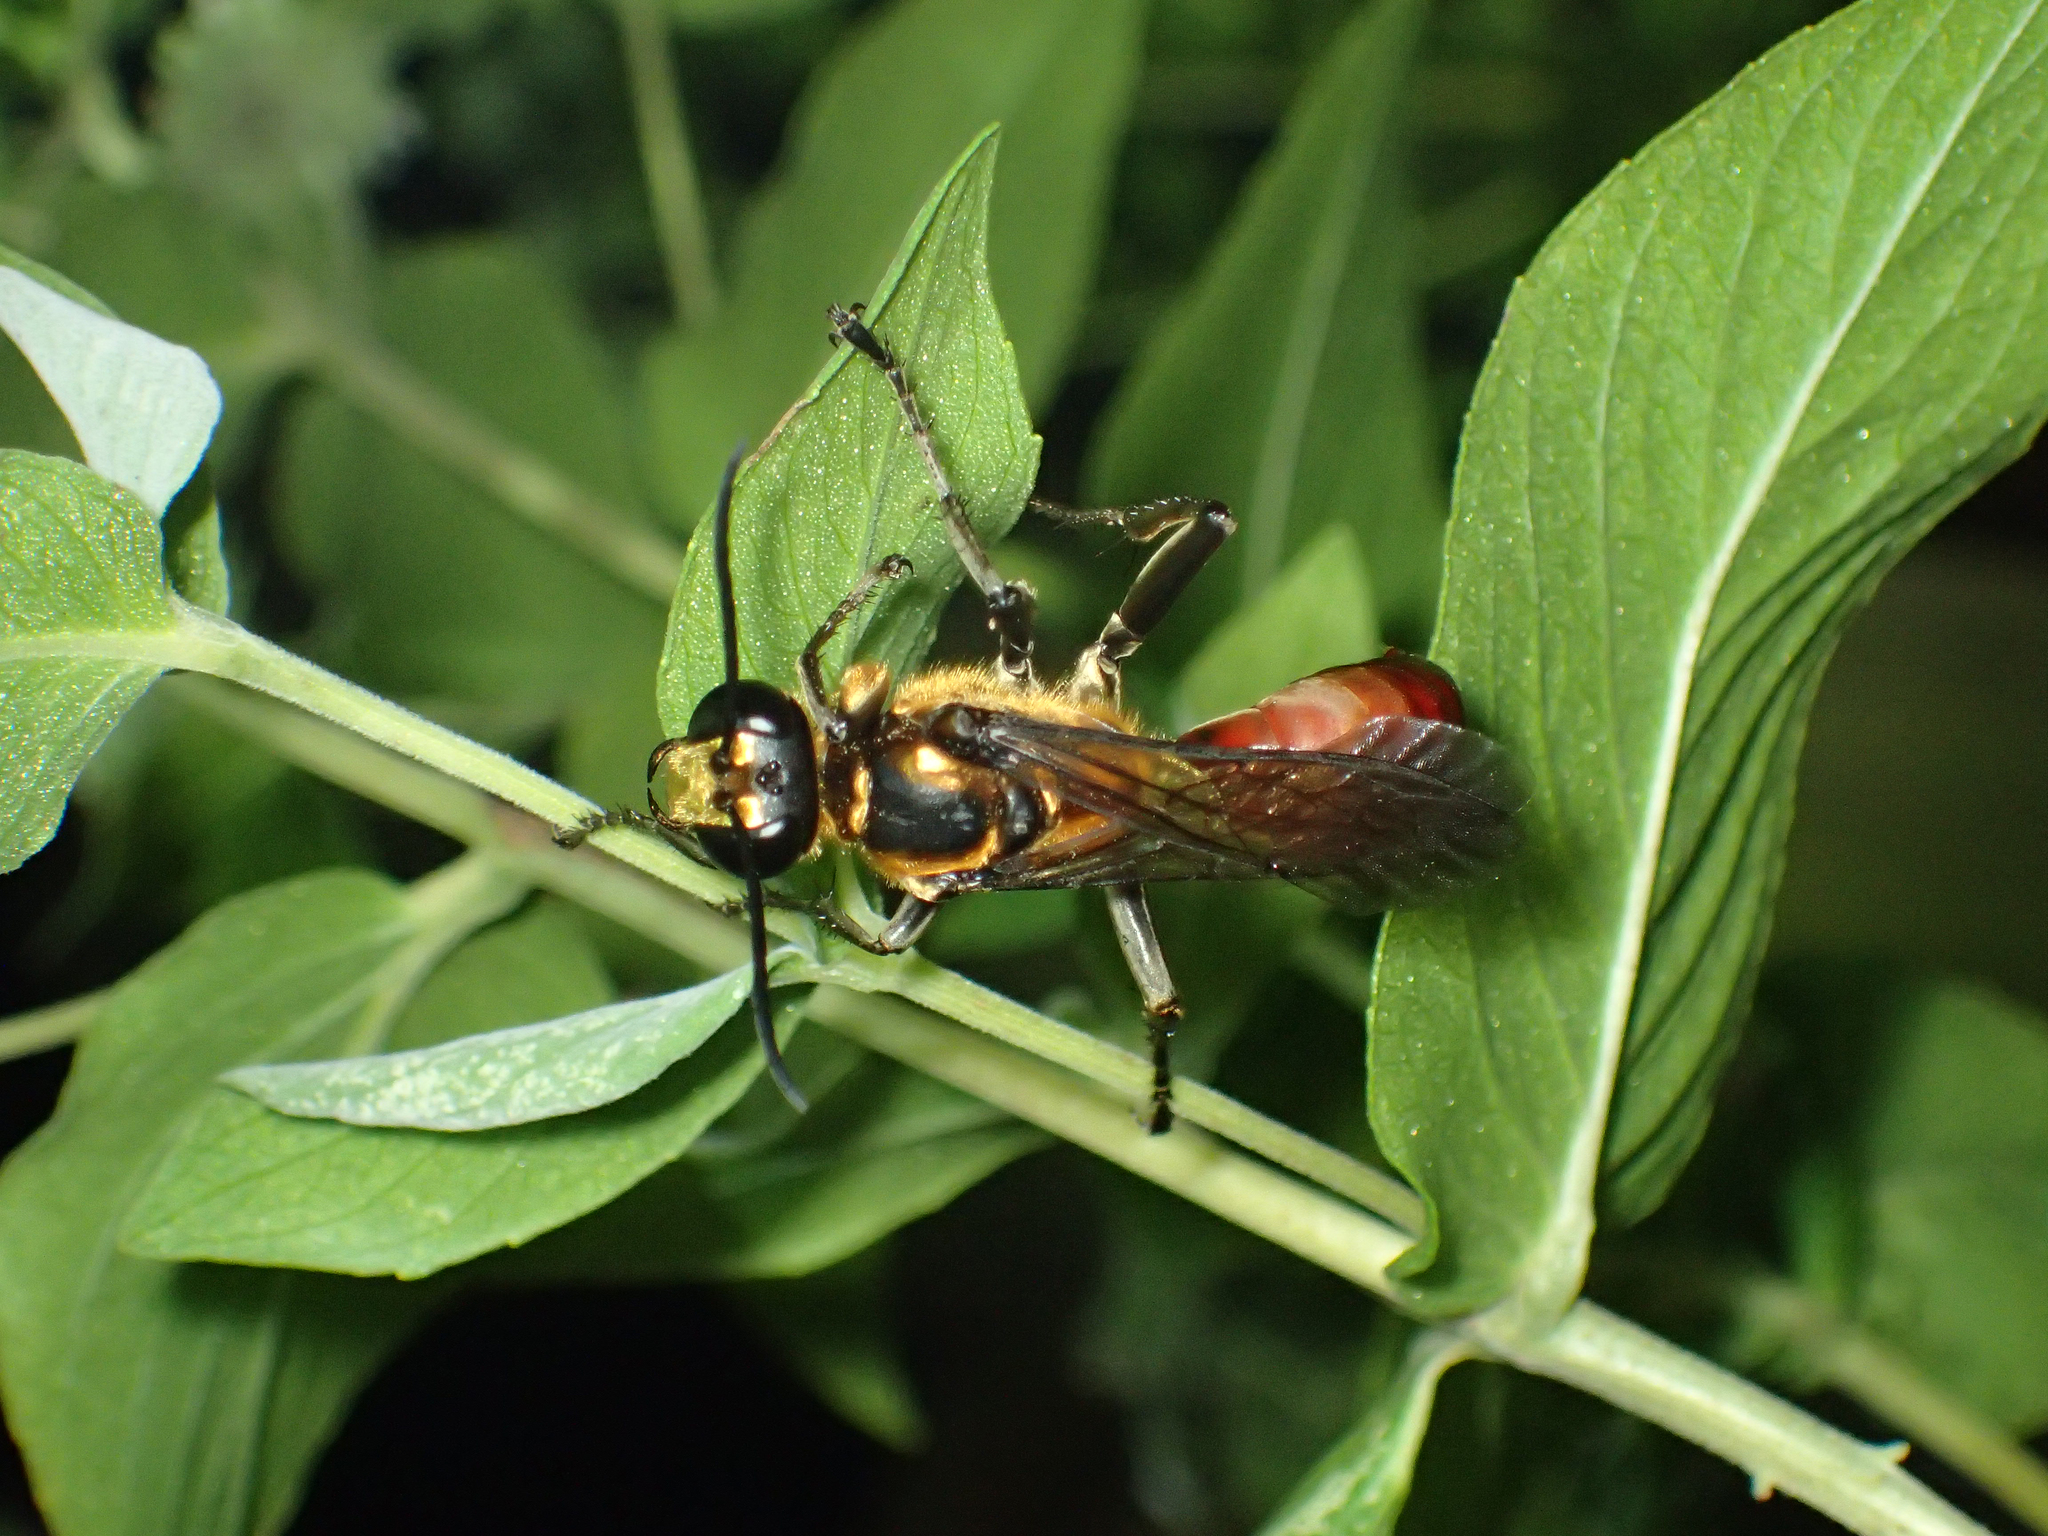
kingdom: Animalia
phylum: Arthropoda
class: Insecta
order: Hymenoptera
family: Sphecidae
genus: Sphex
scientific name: Sphex habenus
